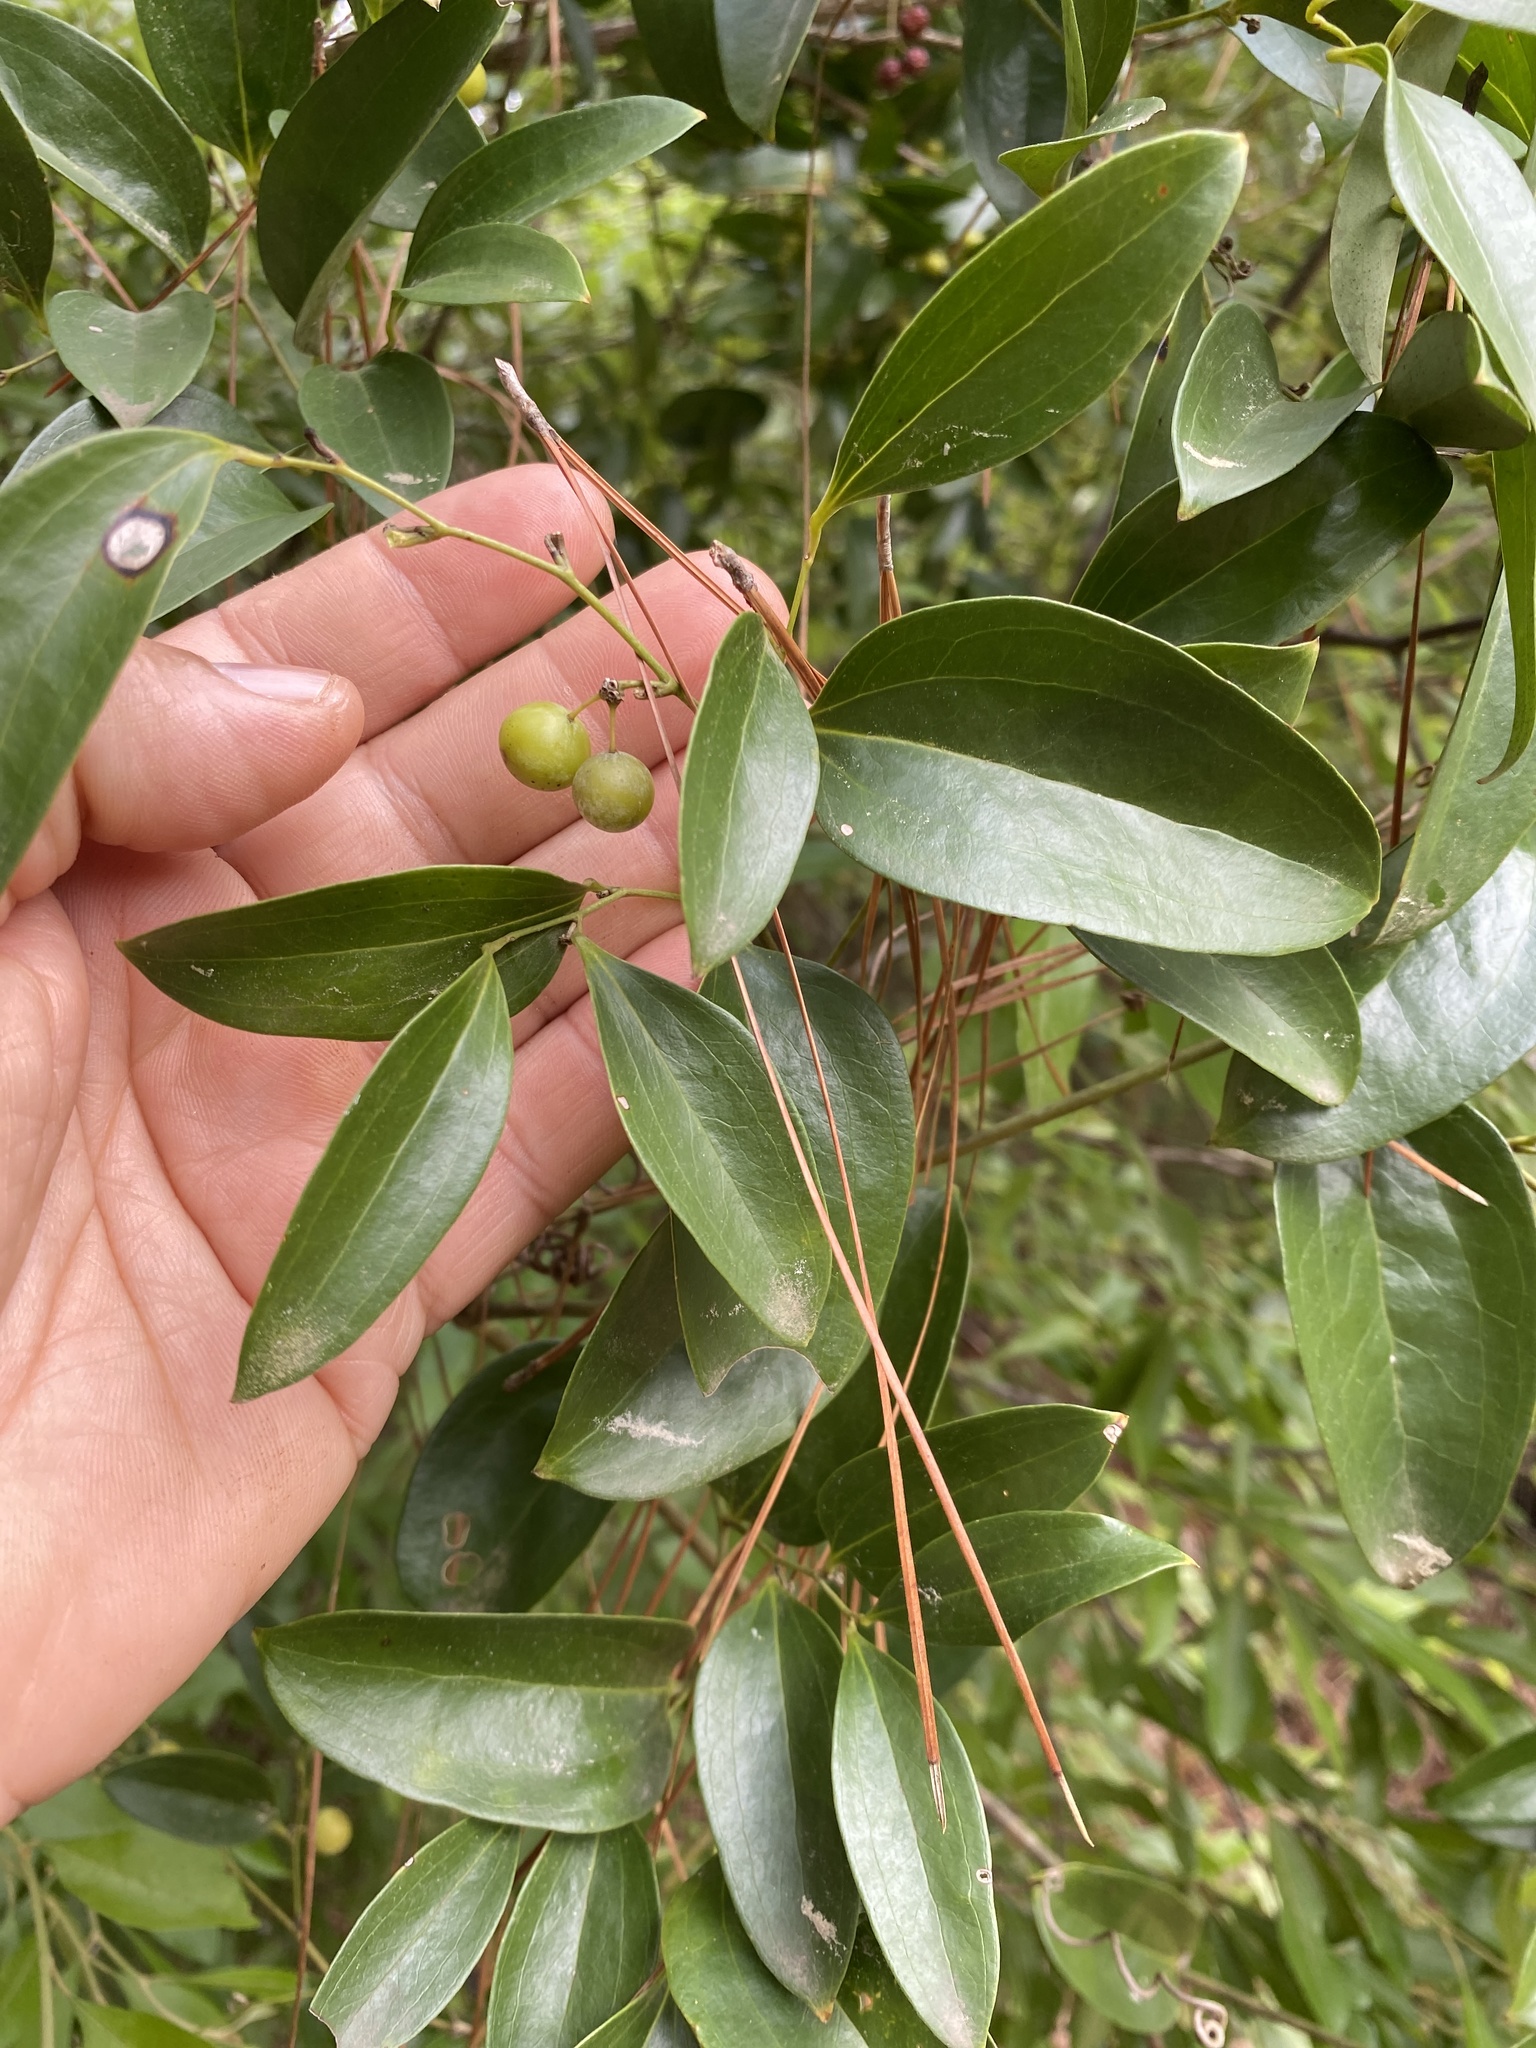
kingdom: Plantae
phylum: Tracheophyta
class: Liliopsida
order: Liliales
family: Smilacaceae
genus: Smilax
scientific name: Smilax maritima
